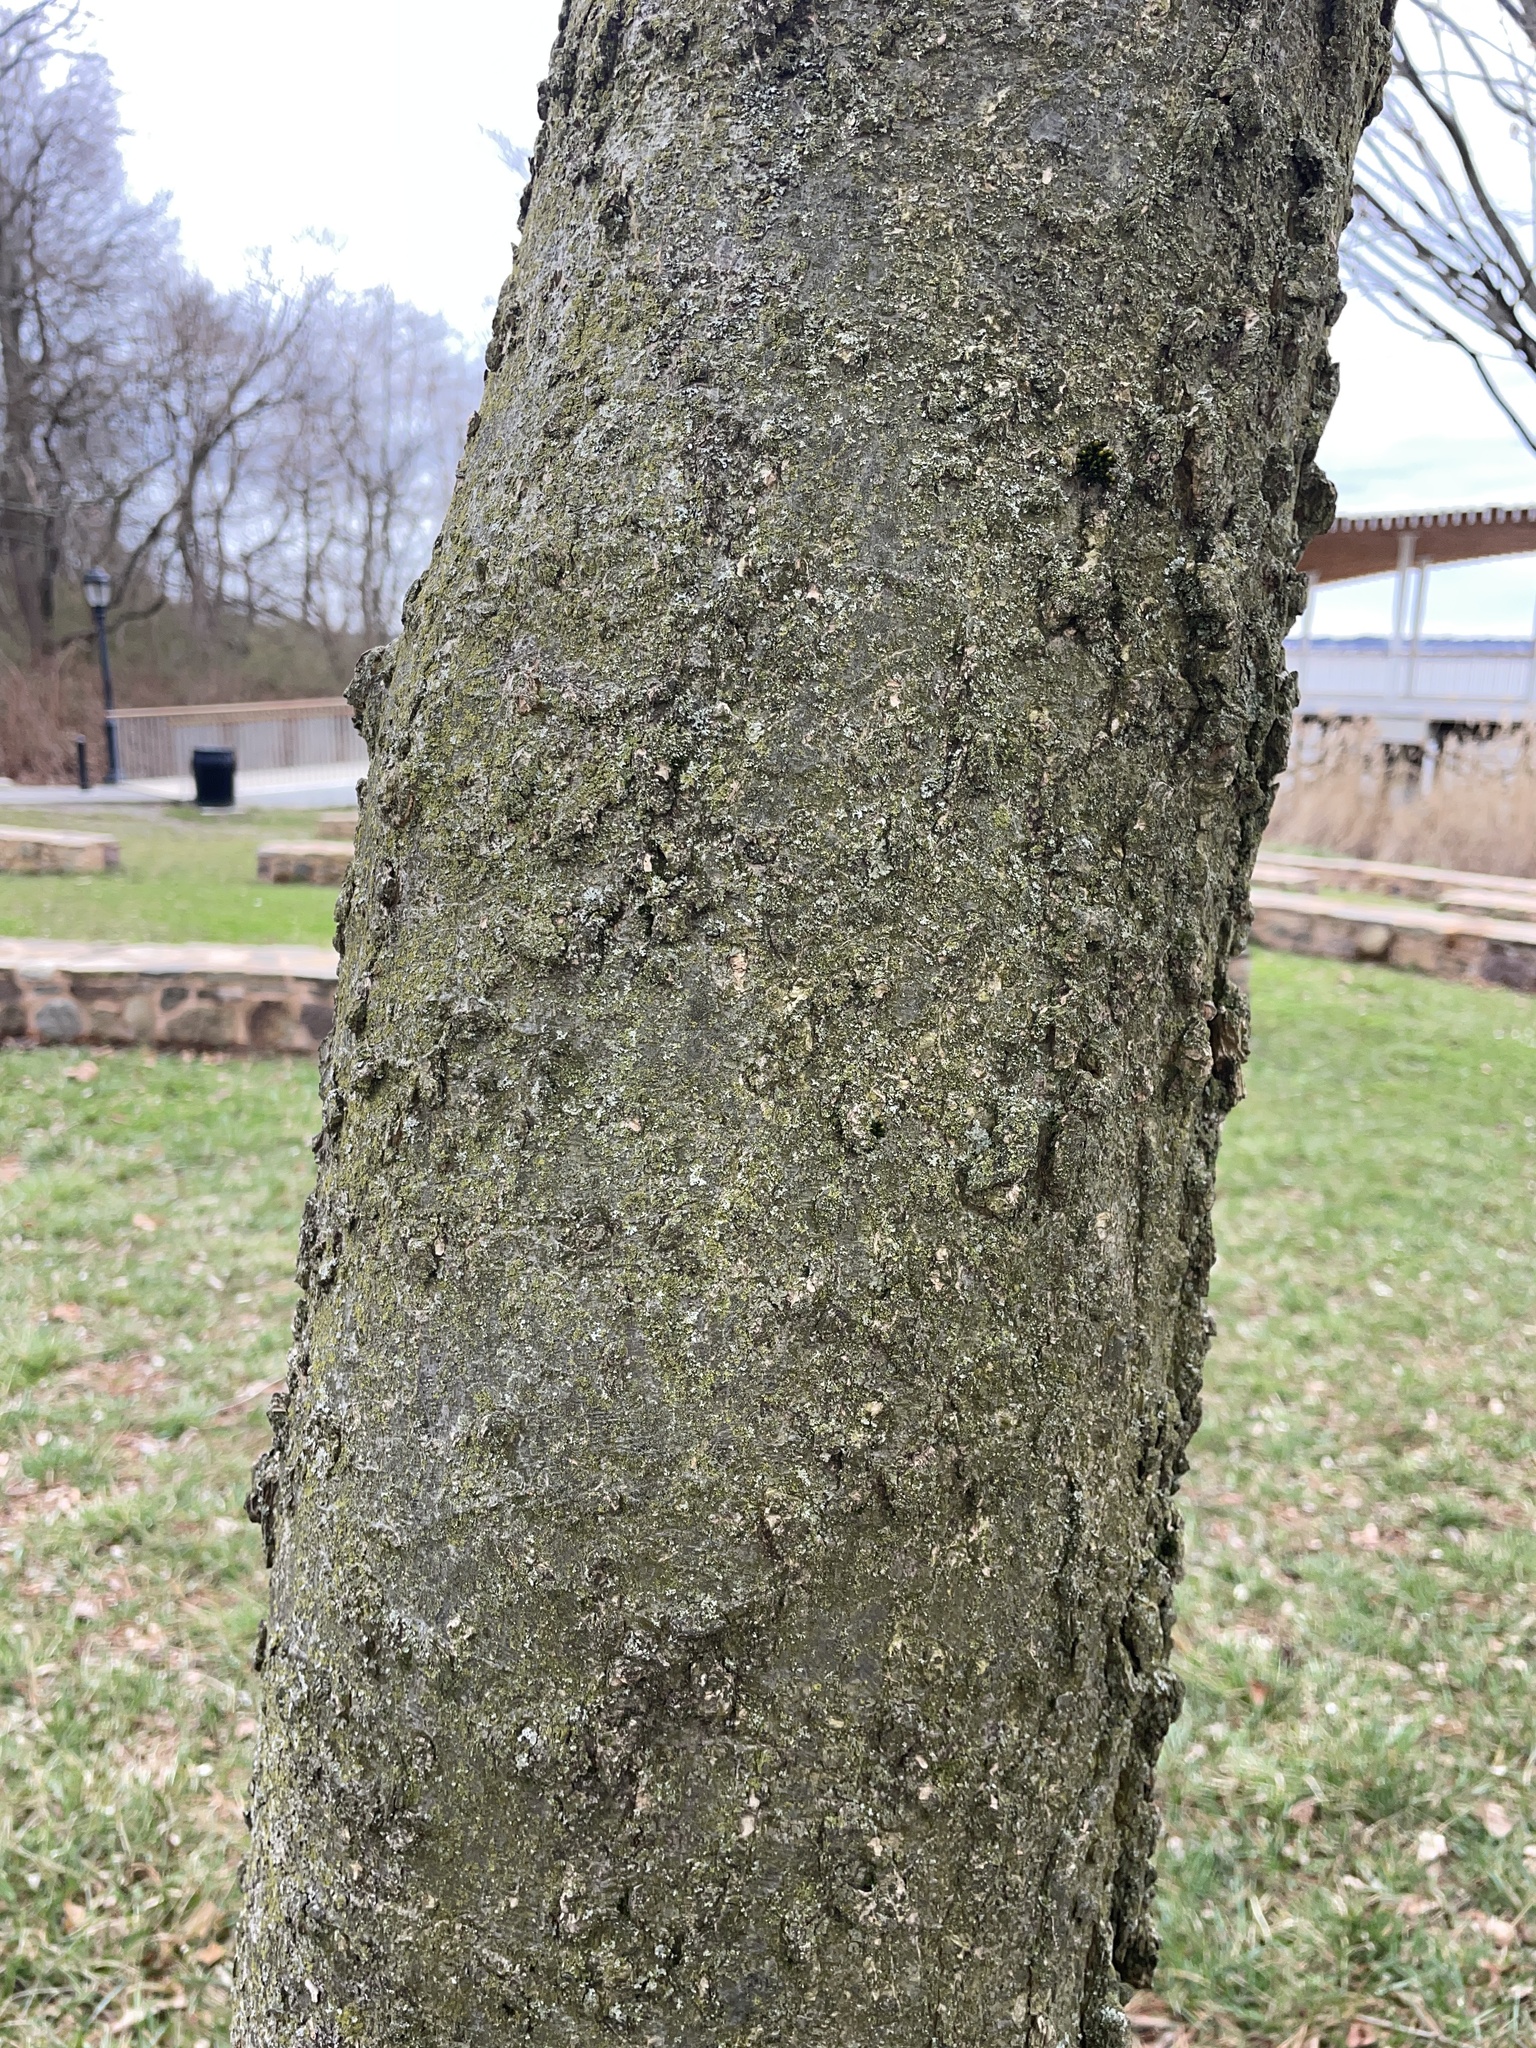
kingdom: Plantae
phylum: Tracheophyta
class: Magnoliopsida
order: Rosales
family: Cannabaceae
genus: Celtis
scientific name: Celtis occidentalis
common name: Common hackberry
